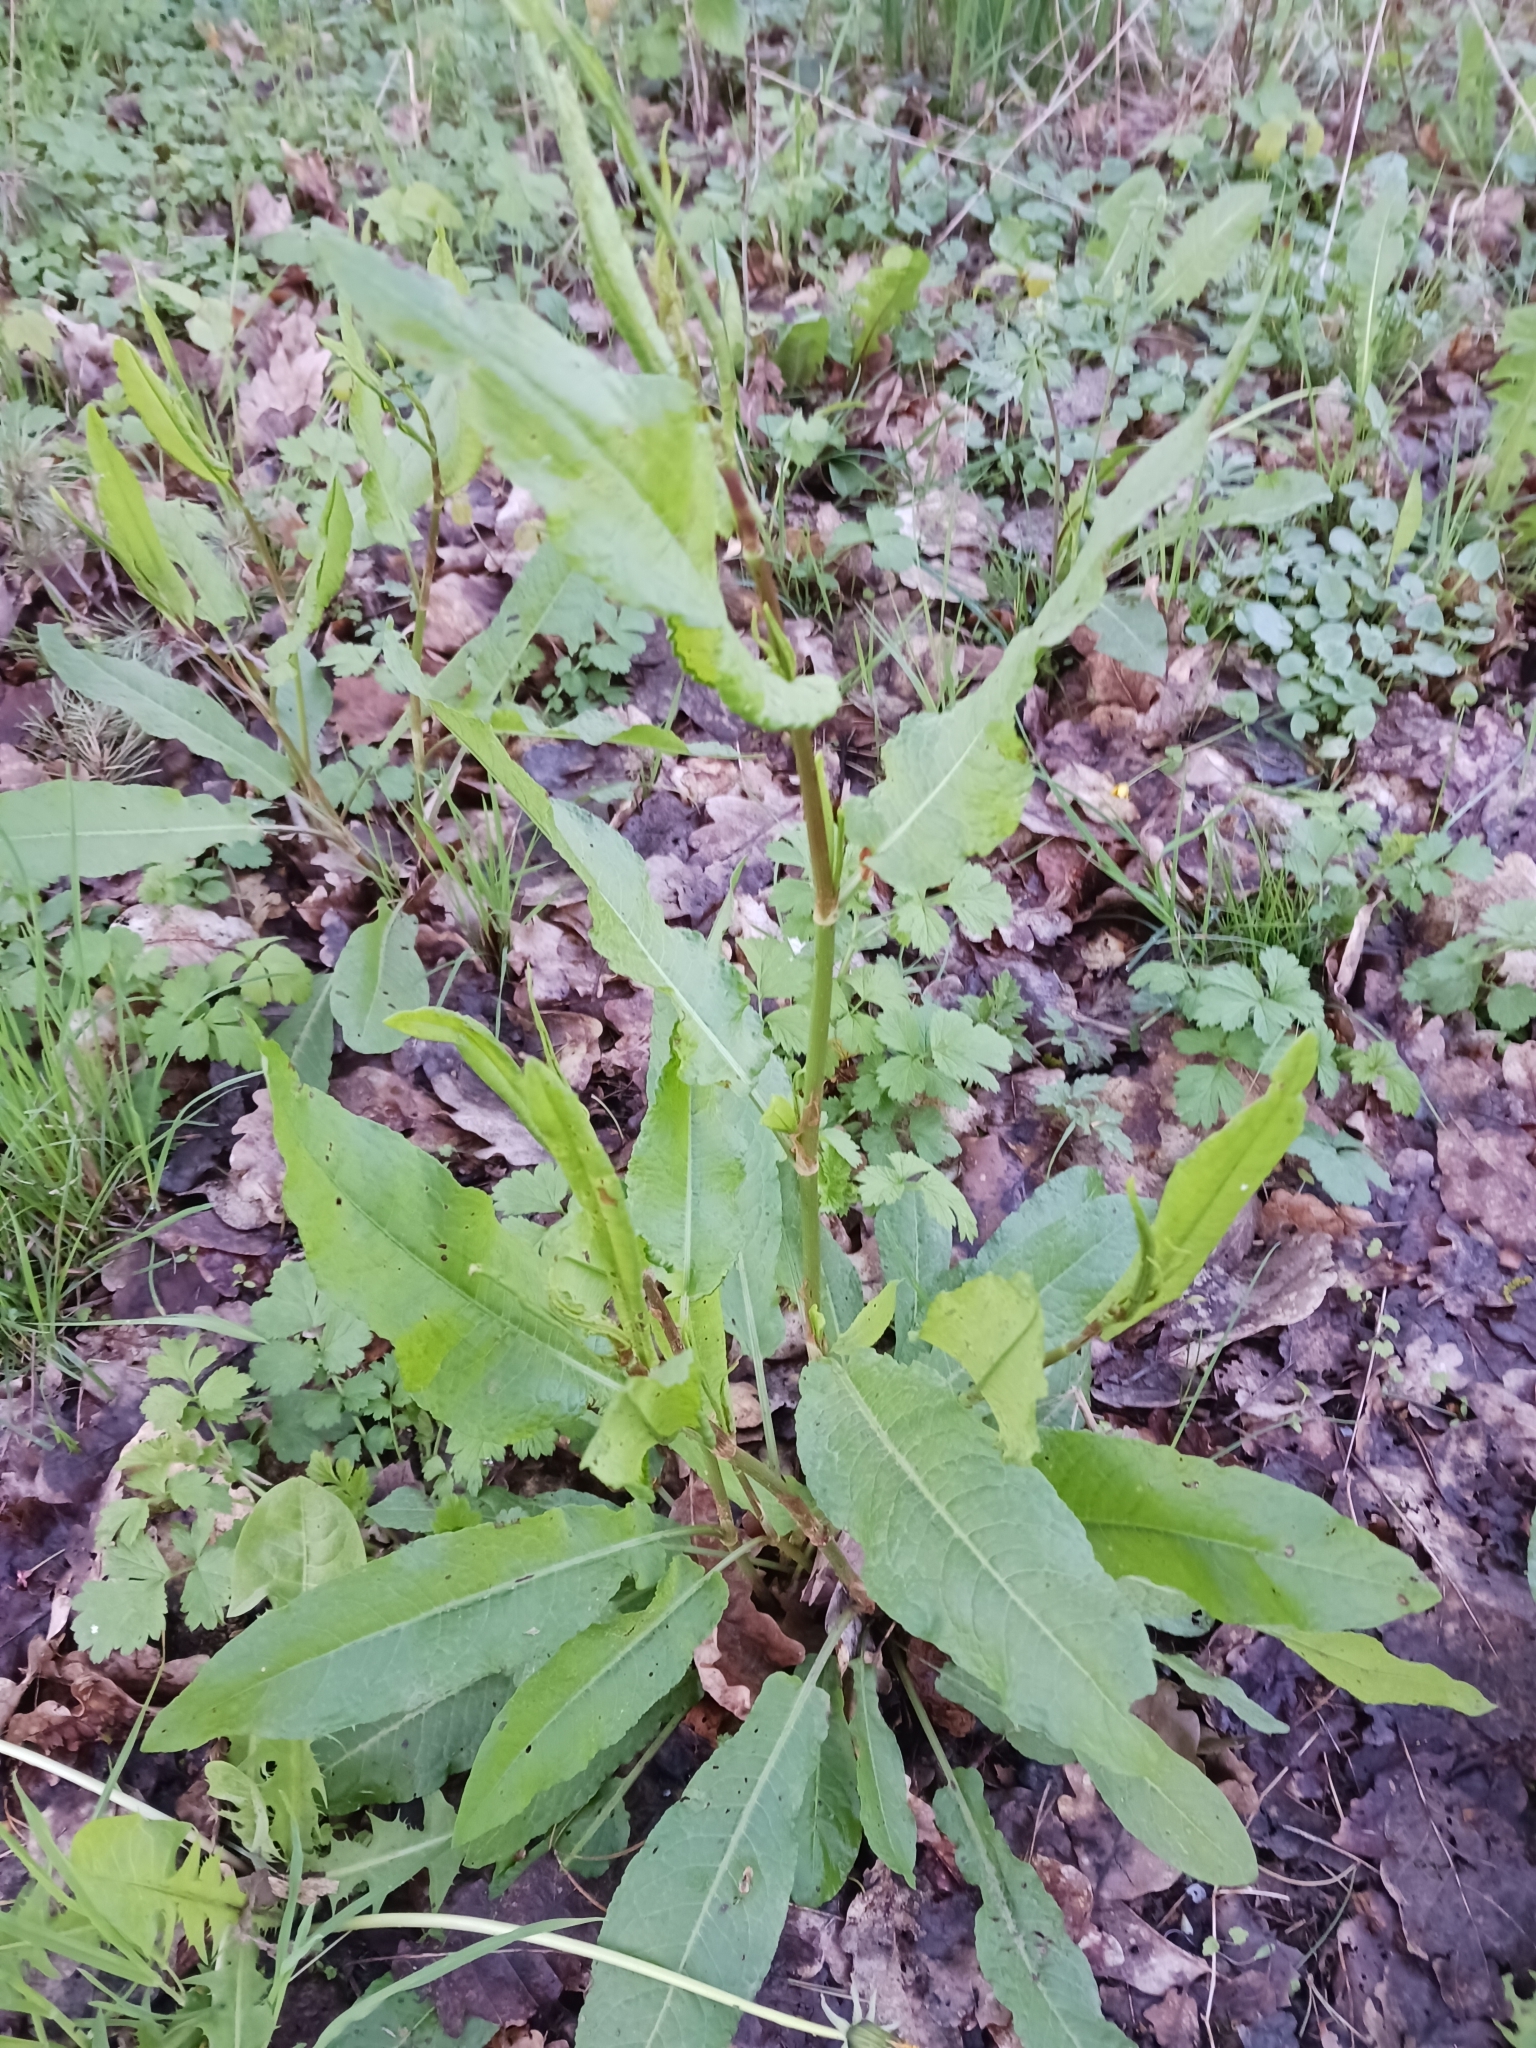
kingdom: Plantae
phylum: Tracheophyta
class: Magnoliopsida
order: Caryophyllales
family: Polygonaceae
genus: Rumex
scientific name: Rumex sanguineus
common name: Wood dock
